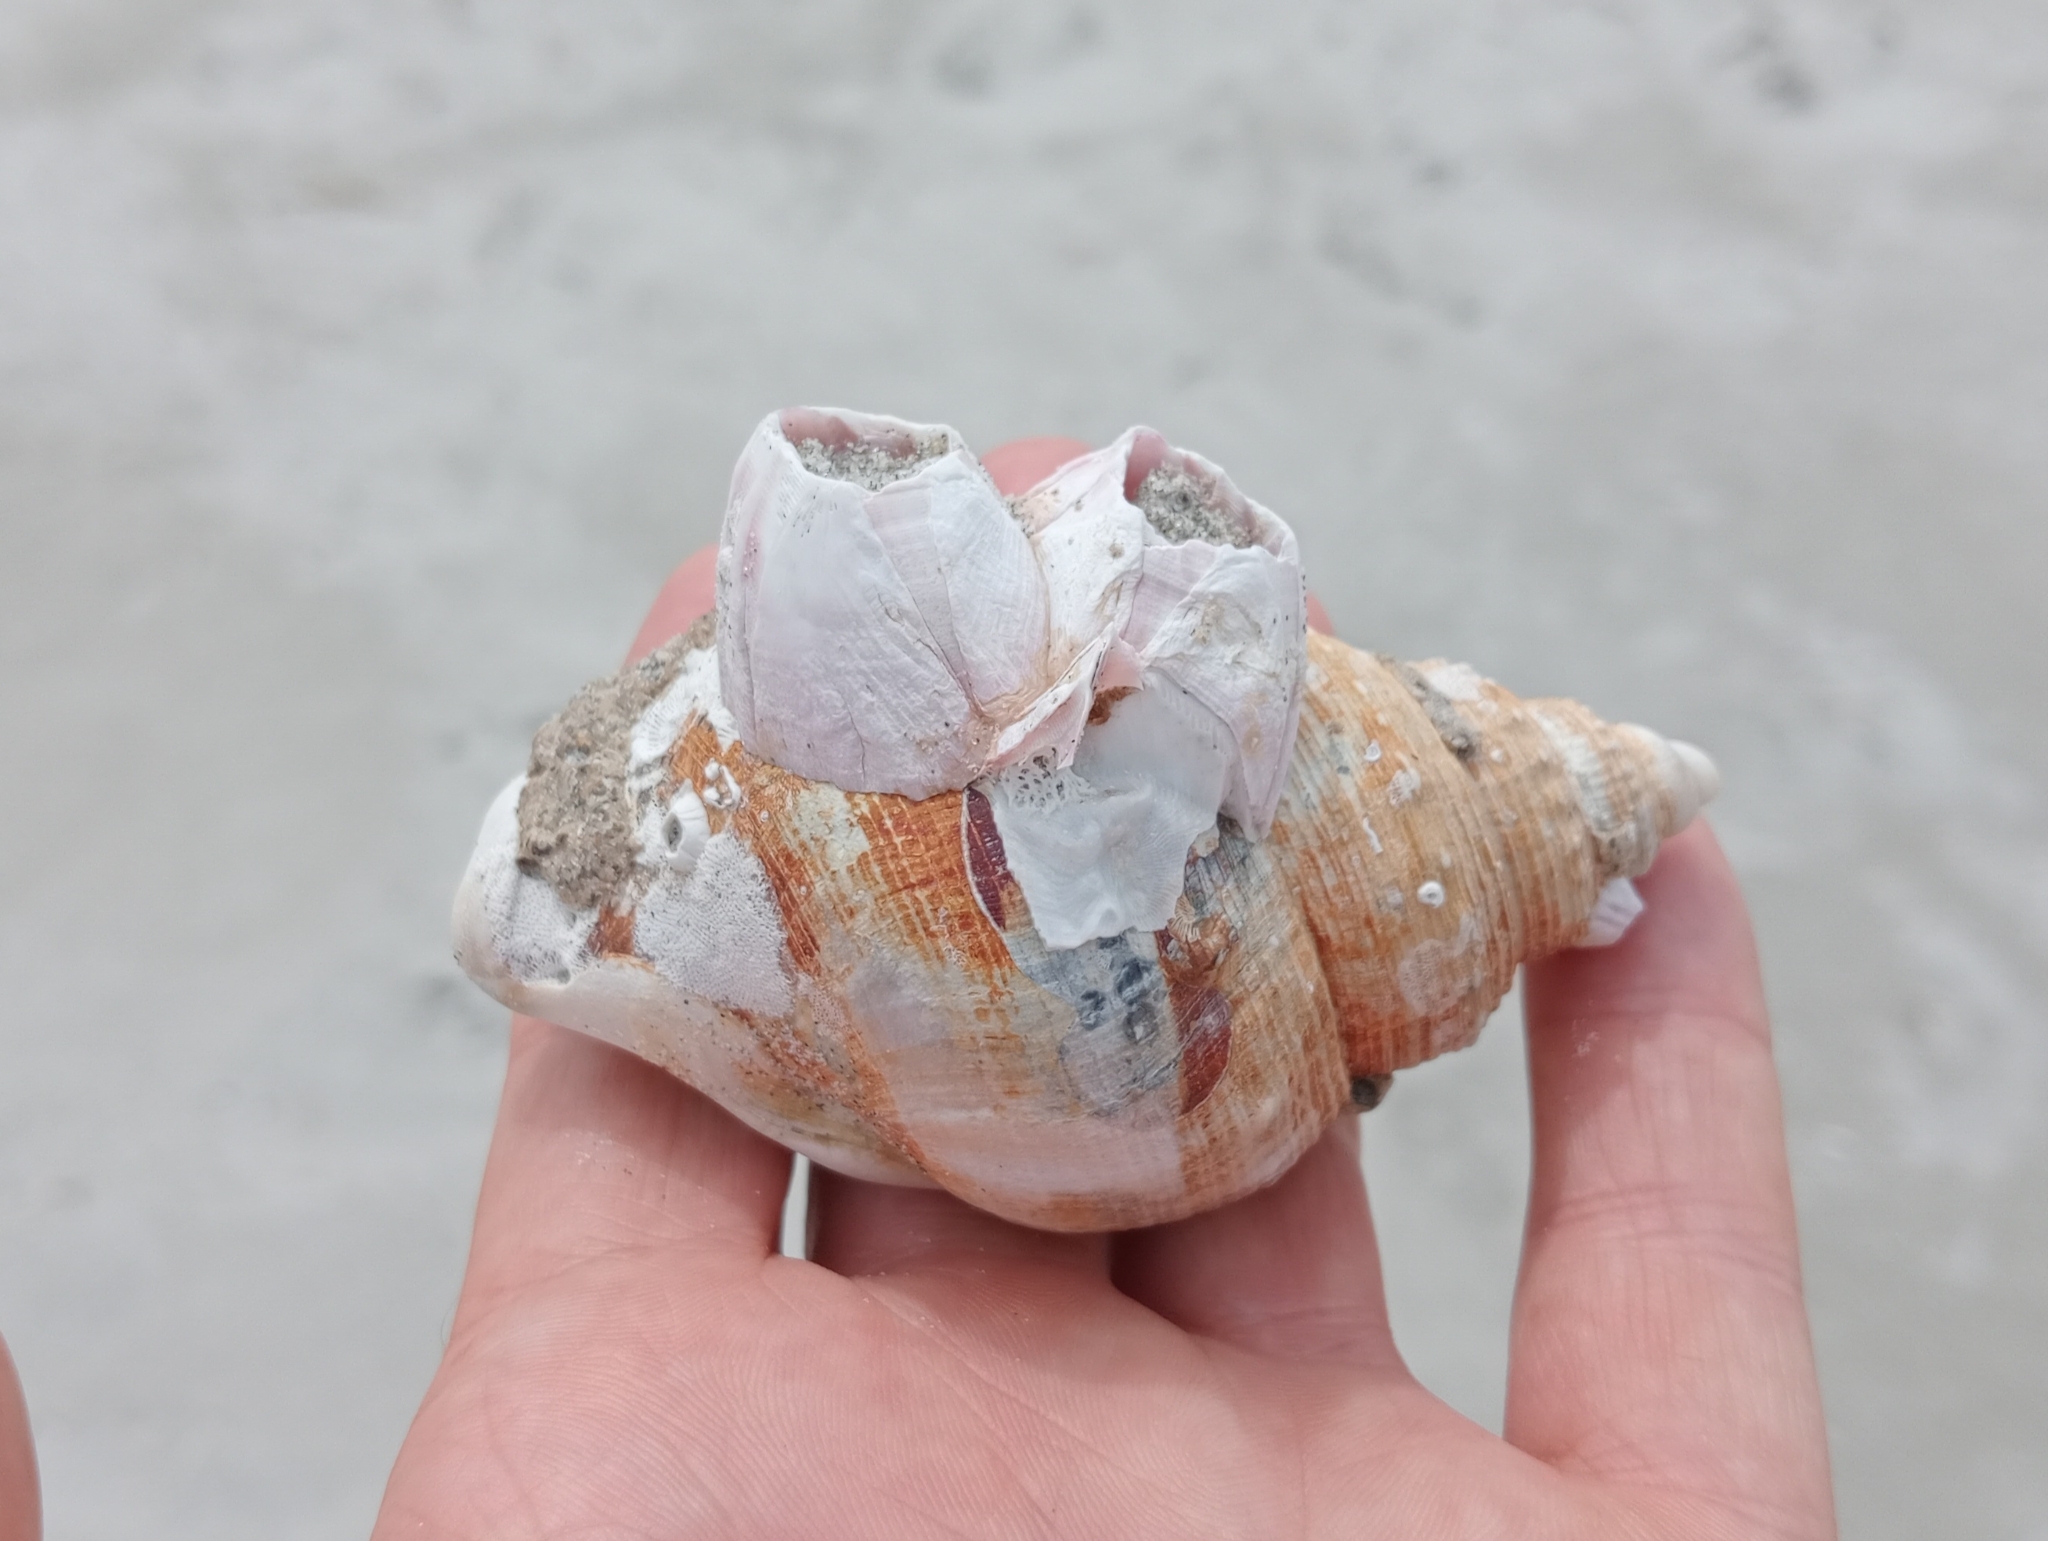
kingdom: Animalia
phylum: Arthropoda
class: Maxillopoda
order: Sessilia
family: Balanidae
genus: Notomegabalanus
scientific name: Notomegabalanus decorus
